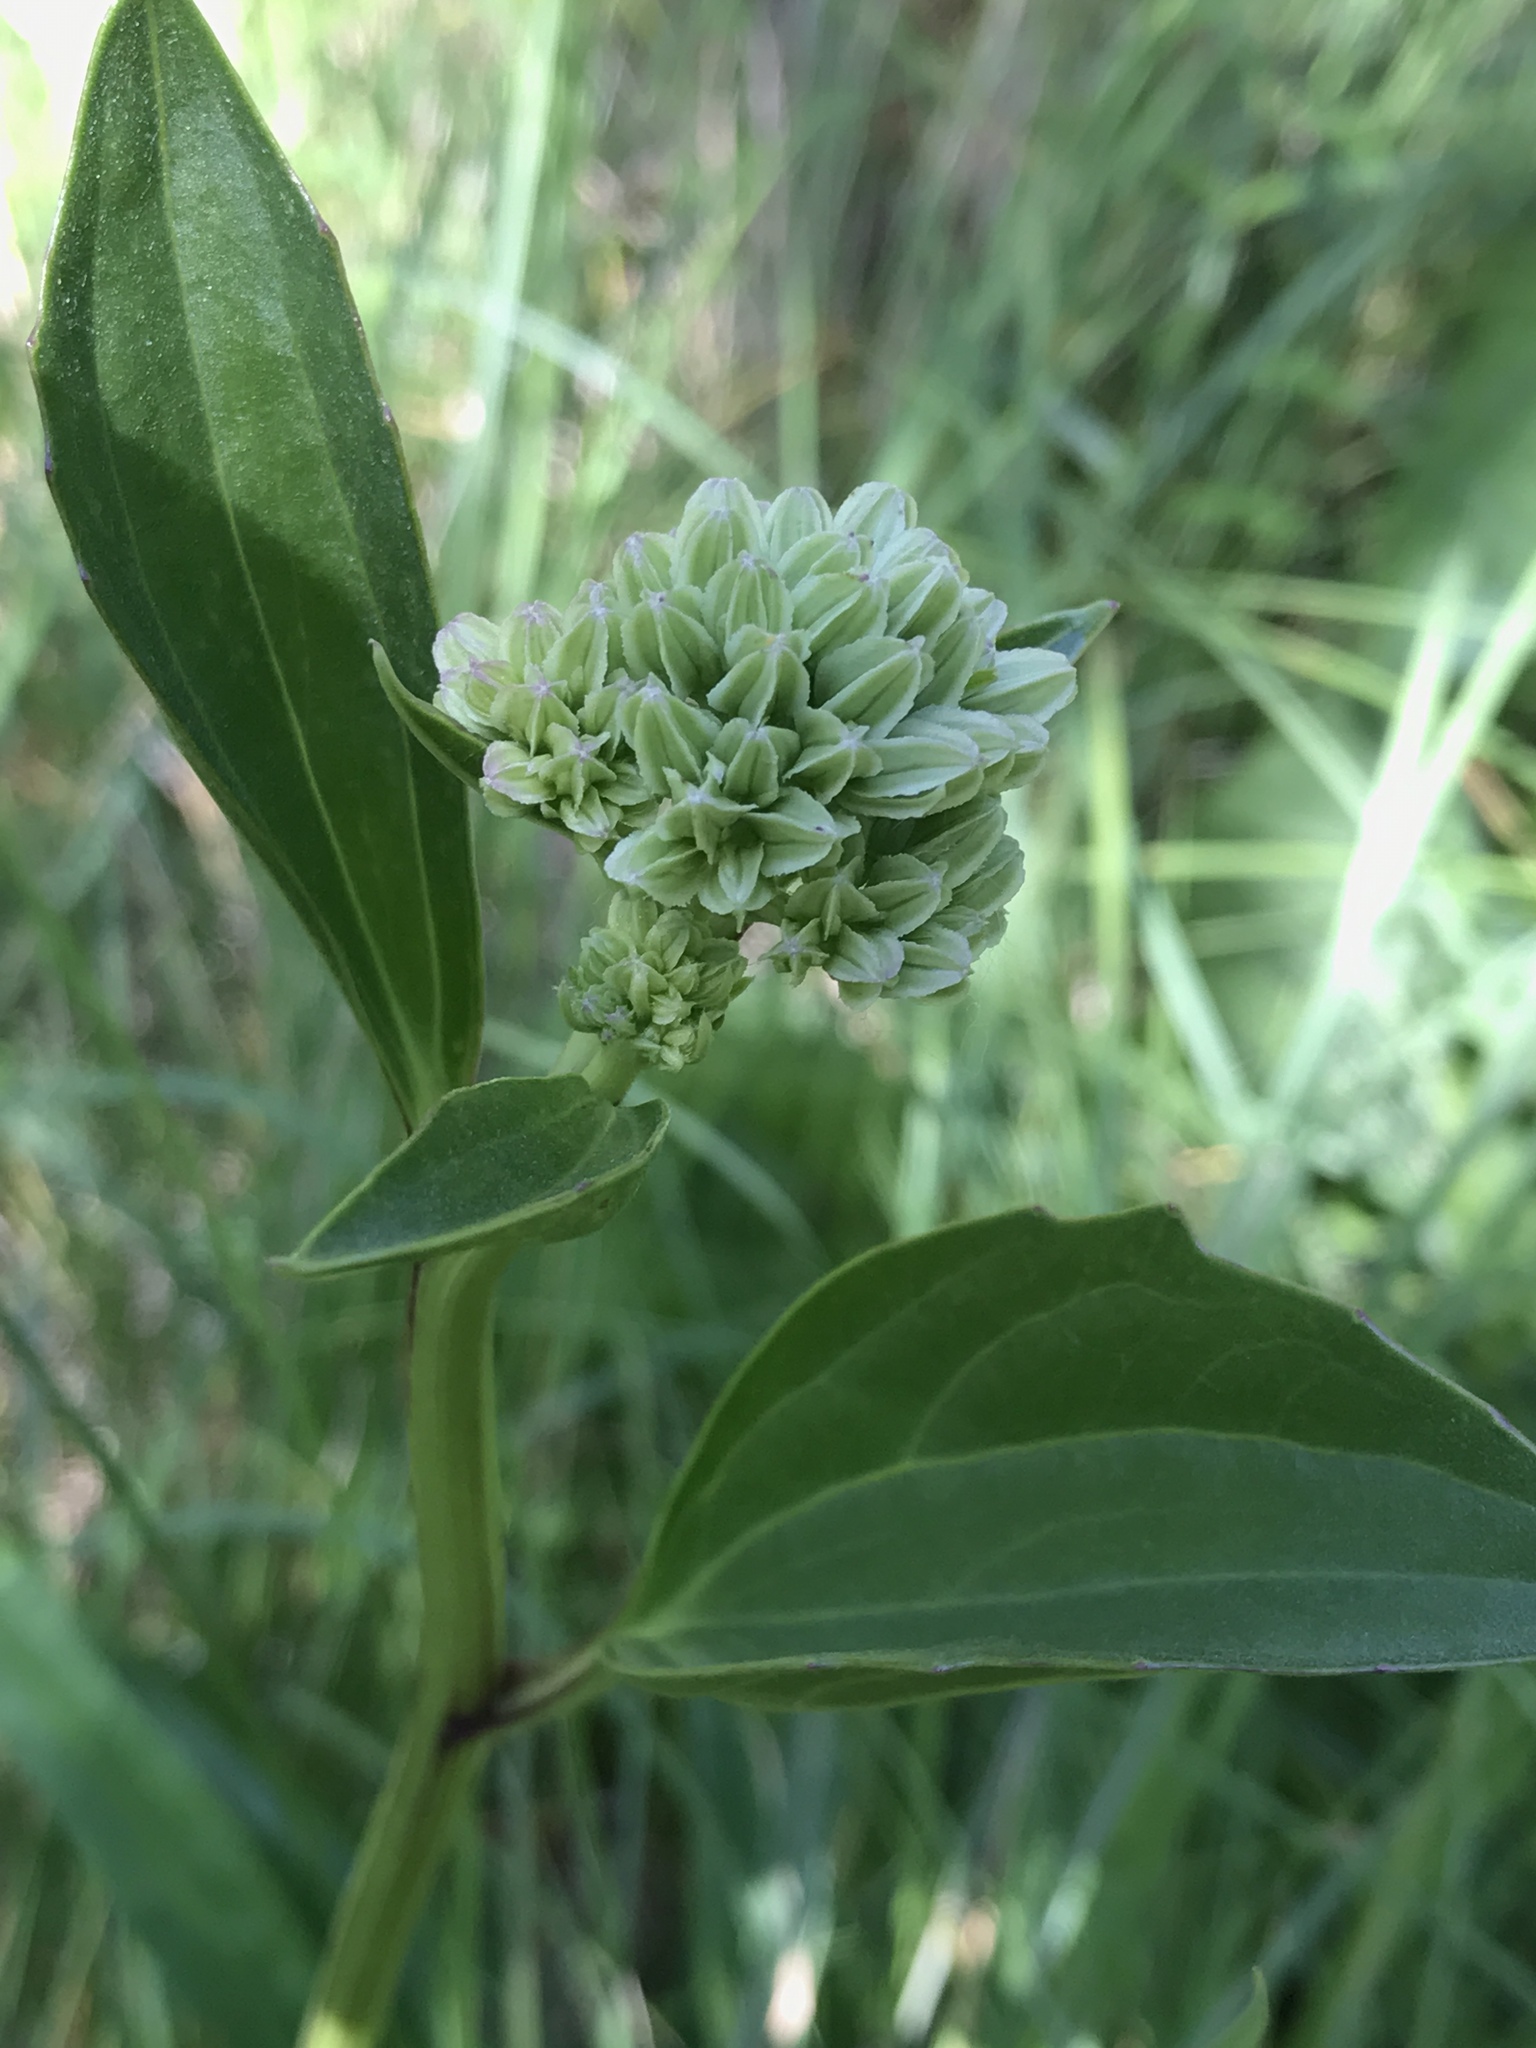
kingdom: Plantae
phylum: Tracheophyta
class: Magnoliopsida
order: Asterales
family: Asteraceae
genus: Arnoglossum
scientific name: Arnoglossum plantagineum
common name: Groove-stemmed indian-plantain
